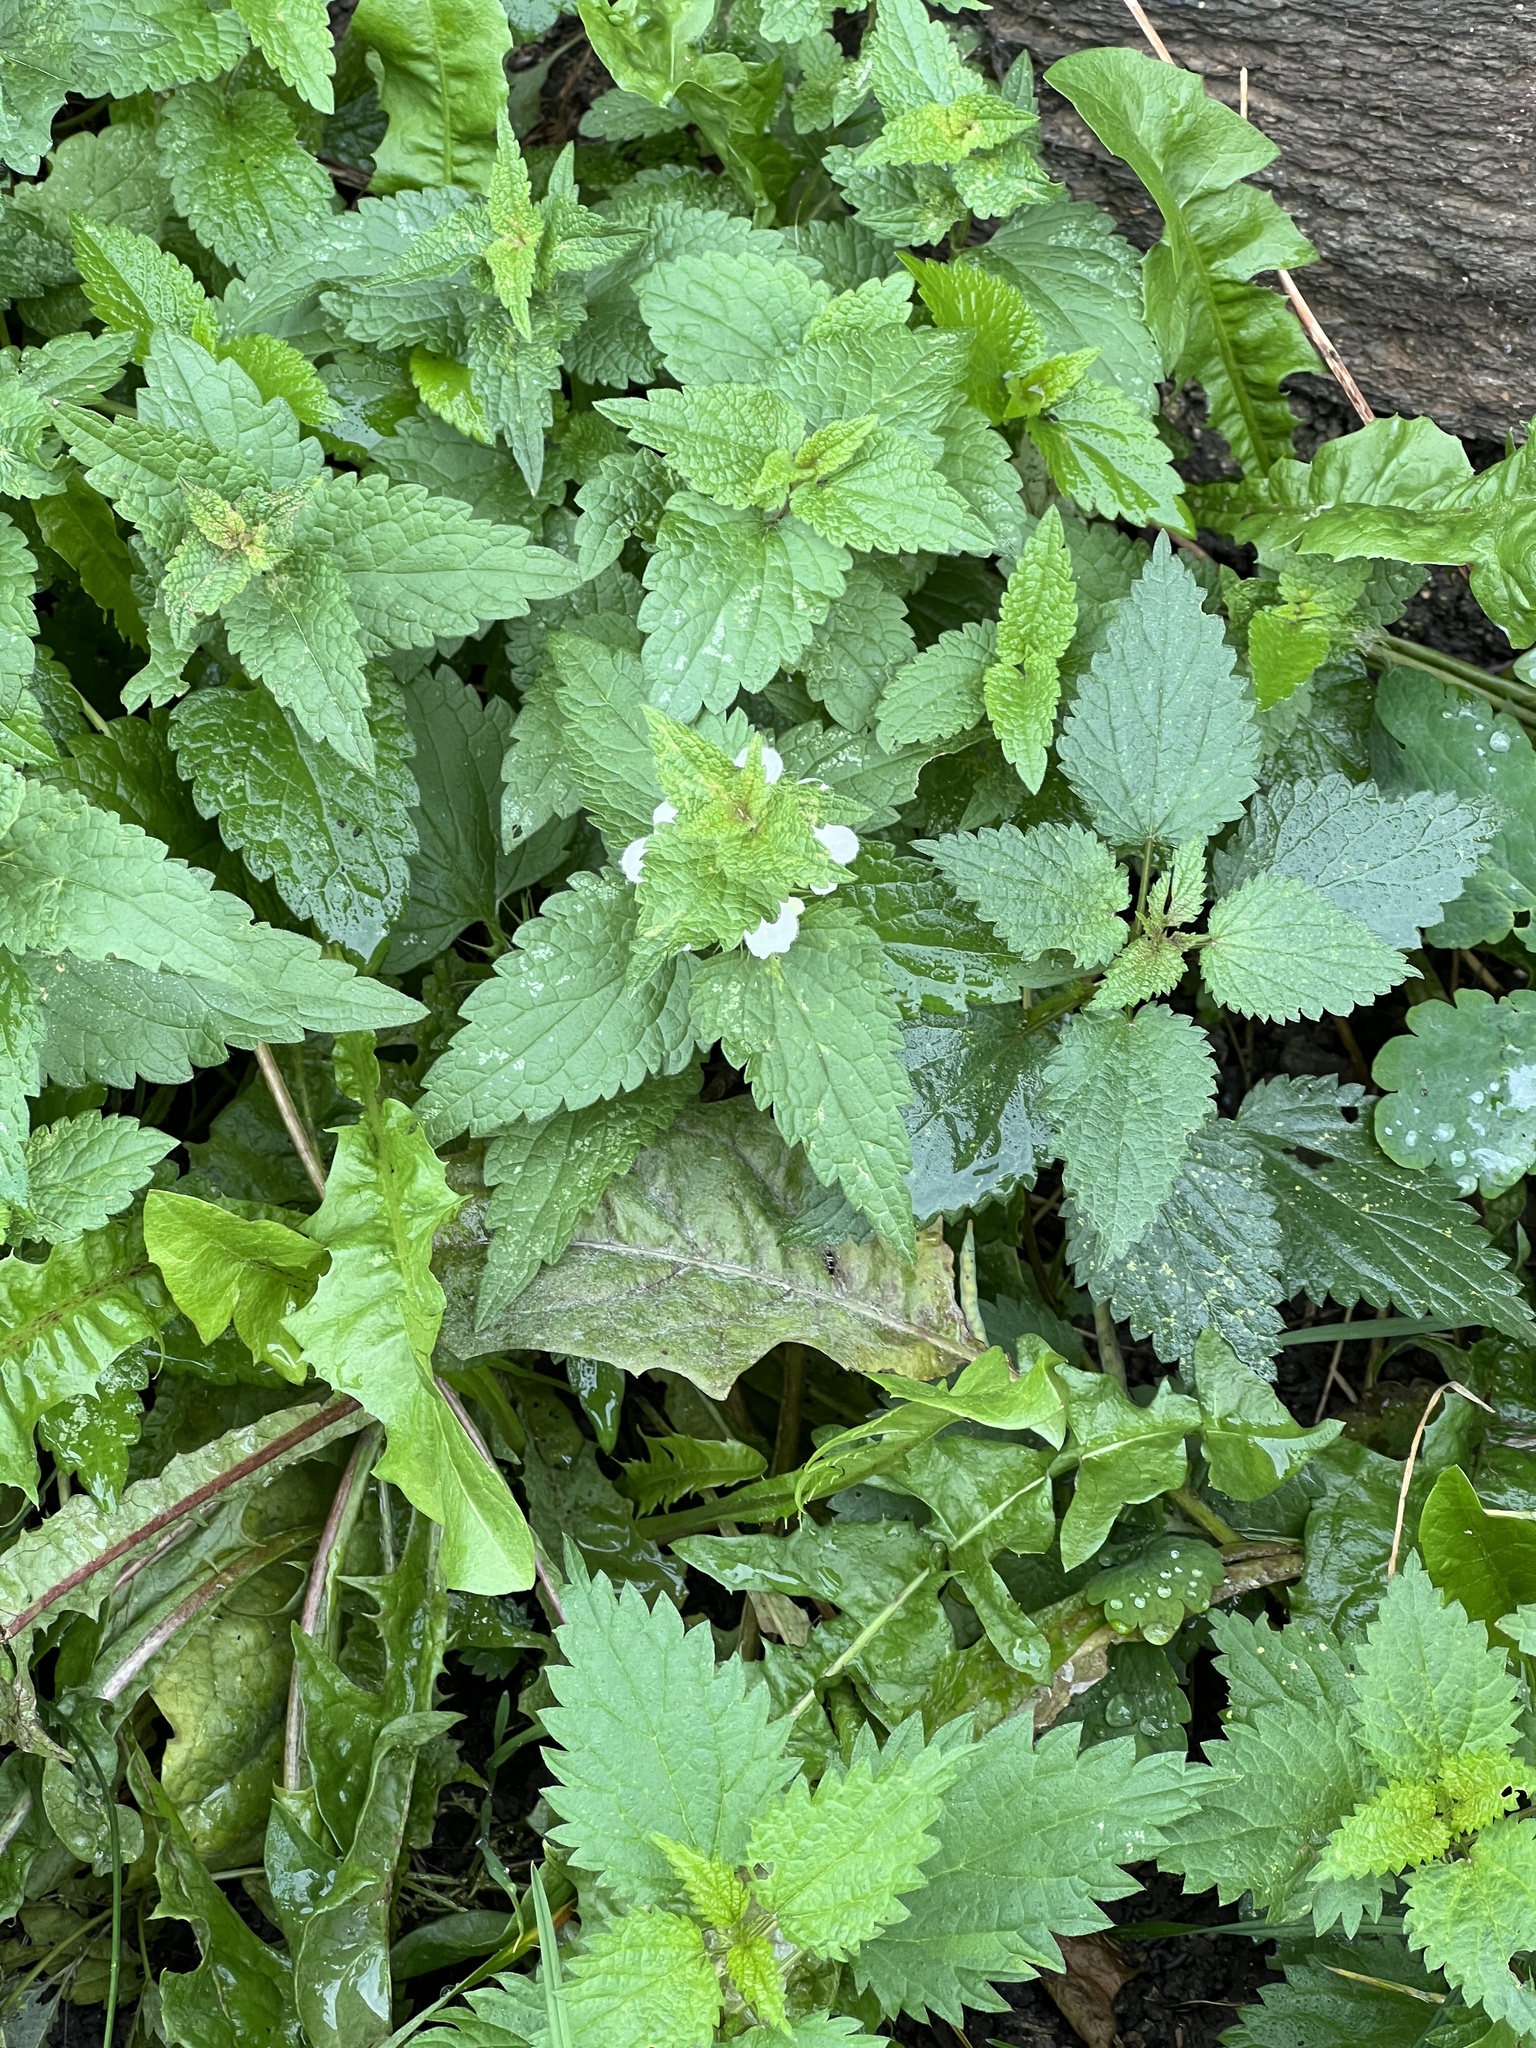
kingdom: Plantae
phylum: Tracheophyta
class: Magnoliopsida
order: Lamiales
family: Lamiaceae
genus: Lamium
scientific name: Lamium album
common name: White dead-nettle
